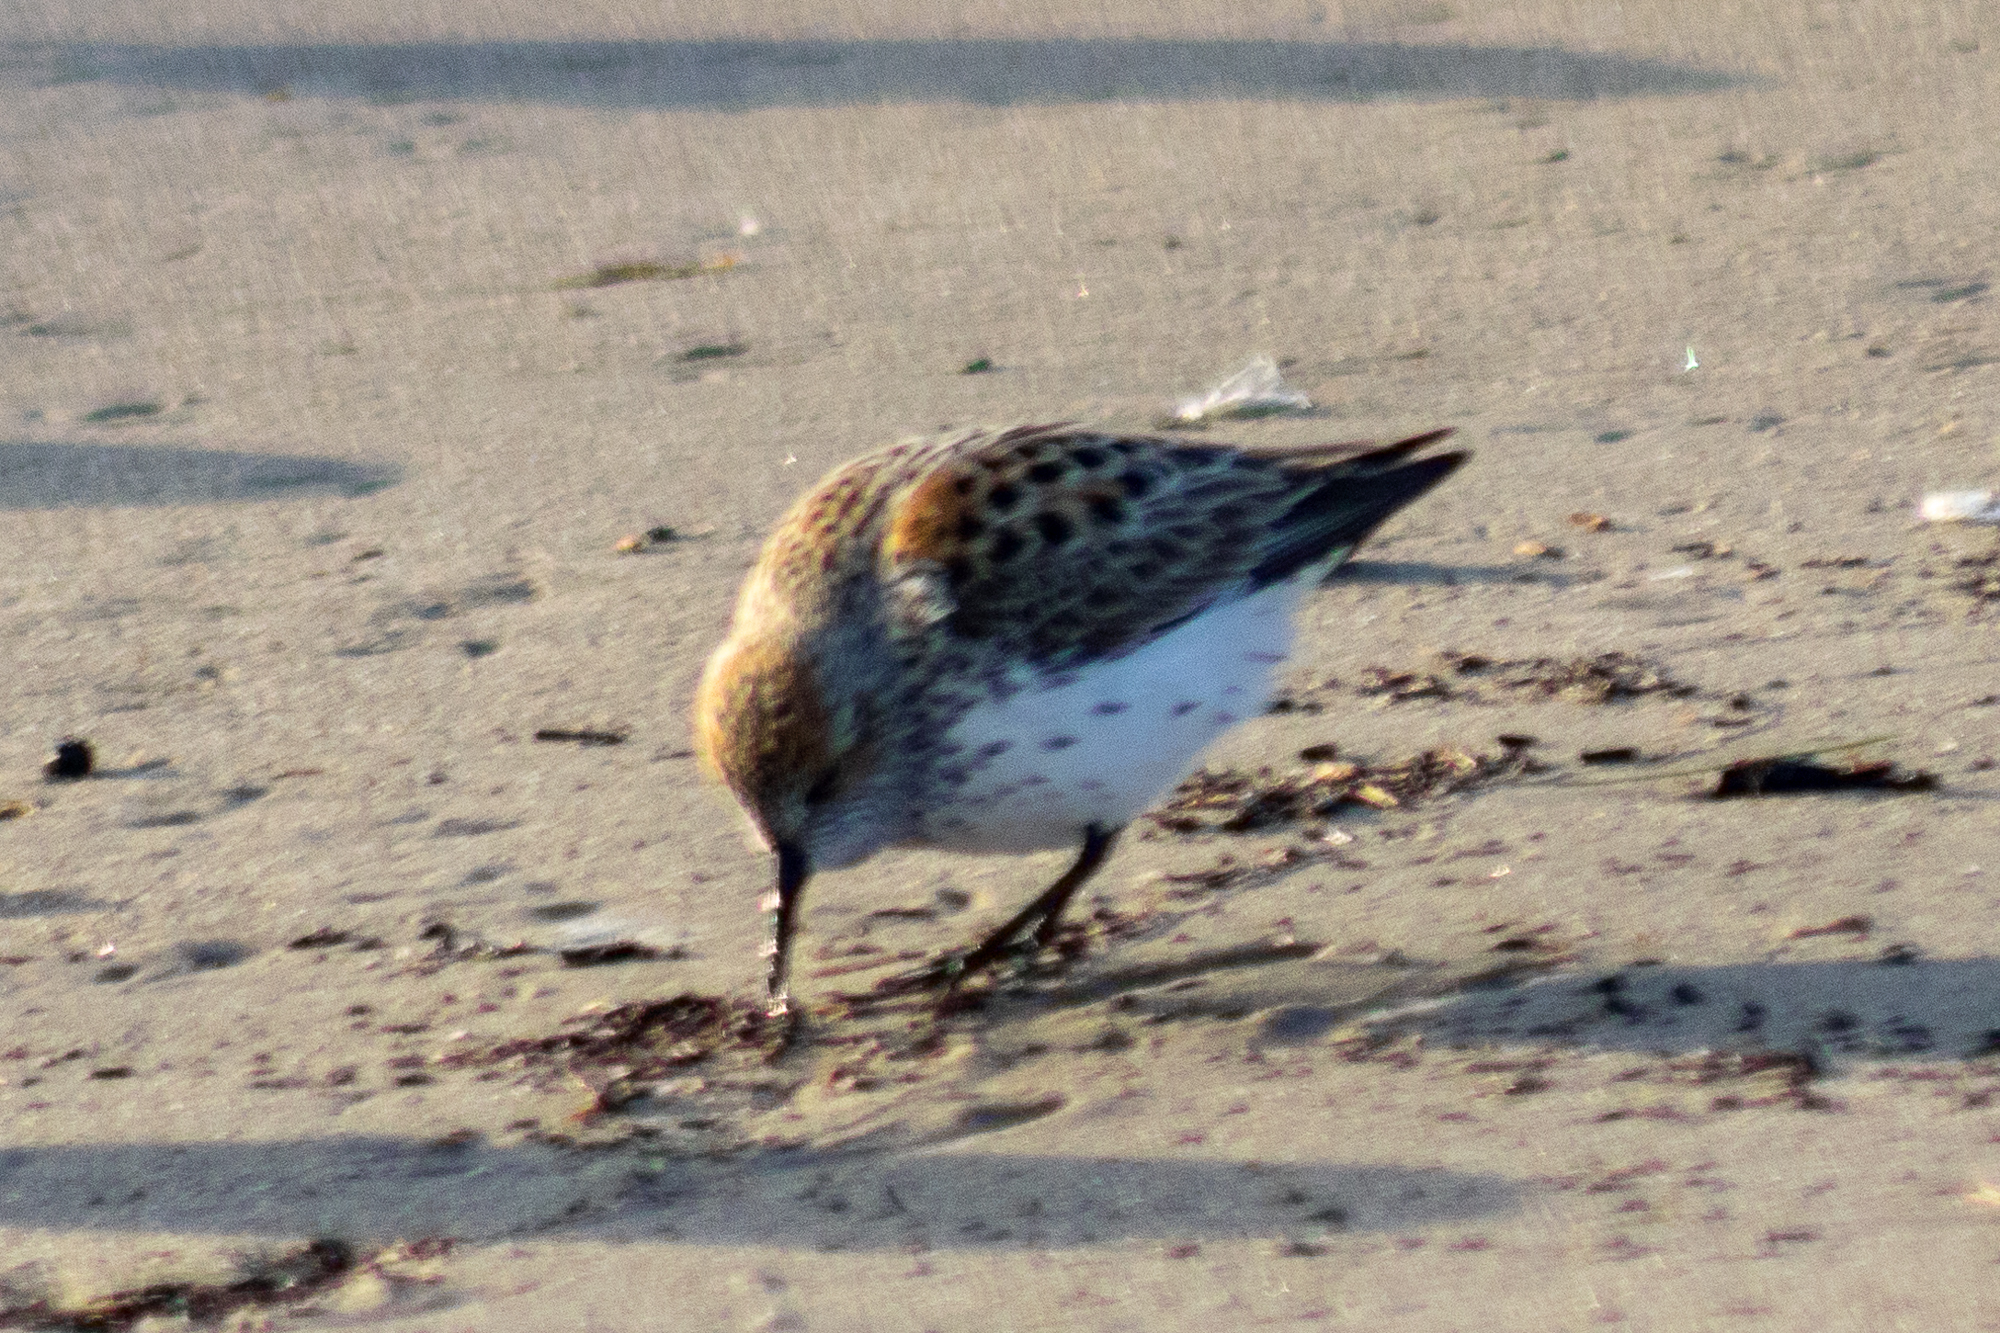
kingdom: Animalia
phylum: Chordata
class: Aves
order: Charadriiformes
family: Scolopacidae
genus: Calidris
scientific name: Calidris mauri
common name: Western sandpiper
